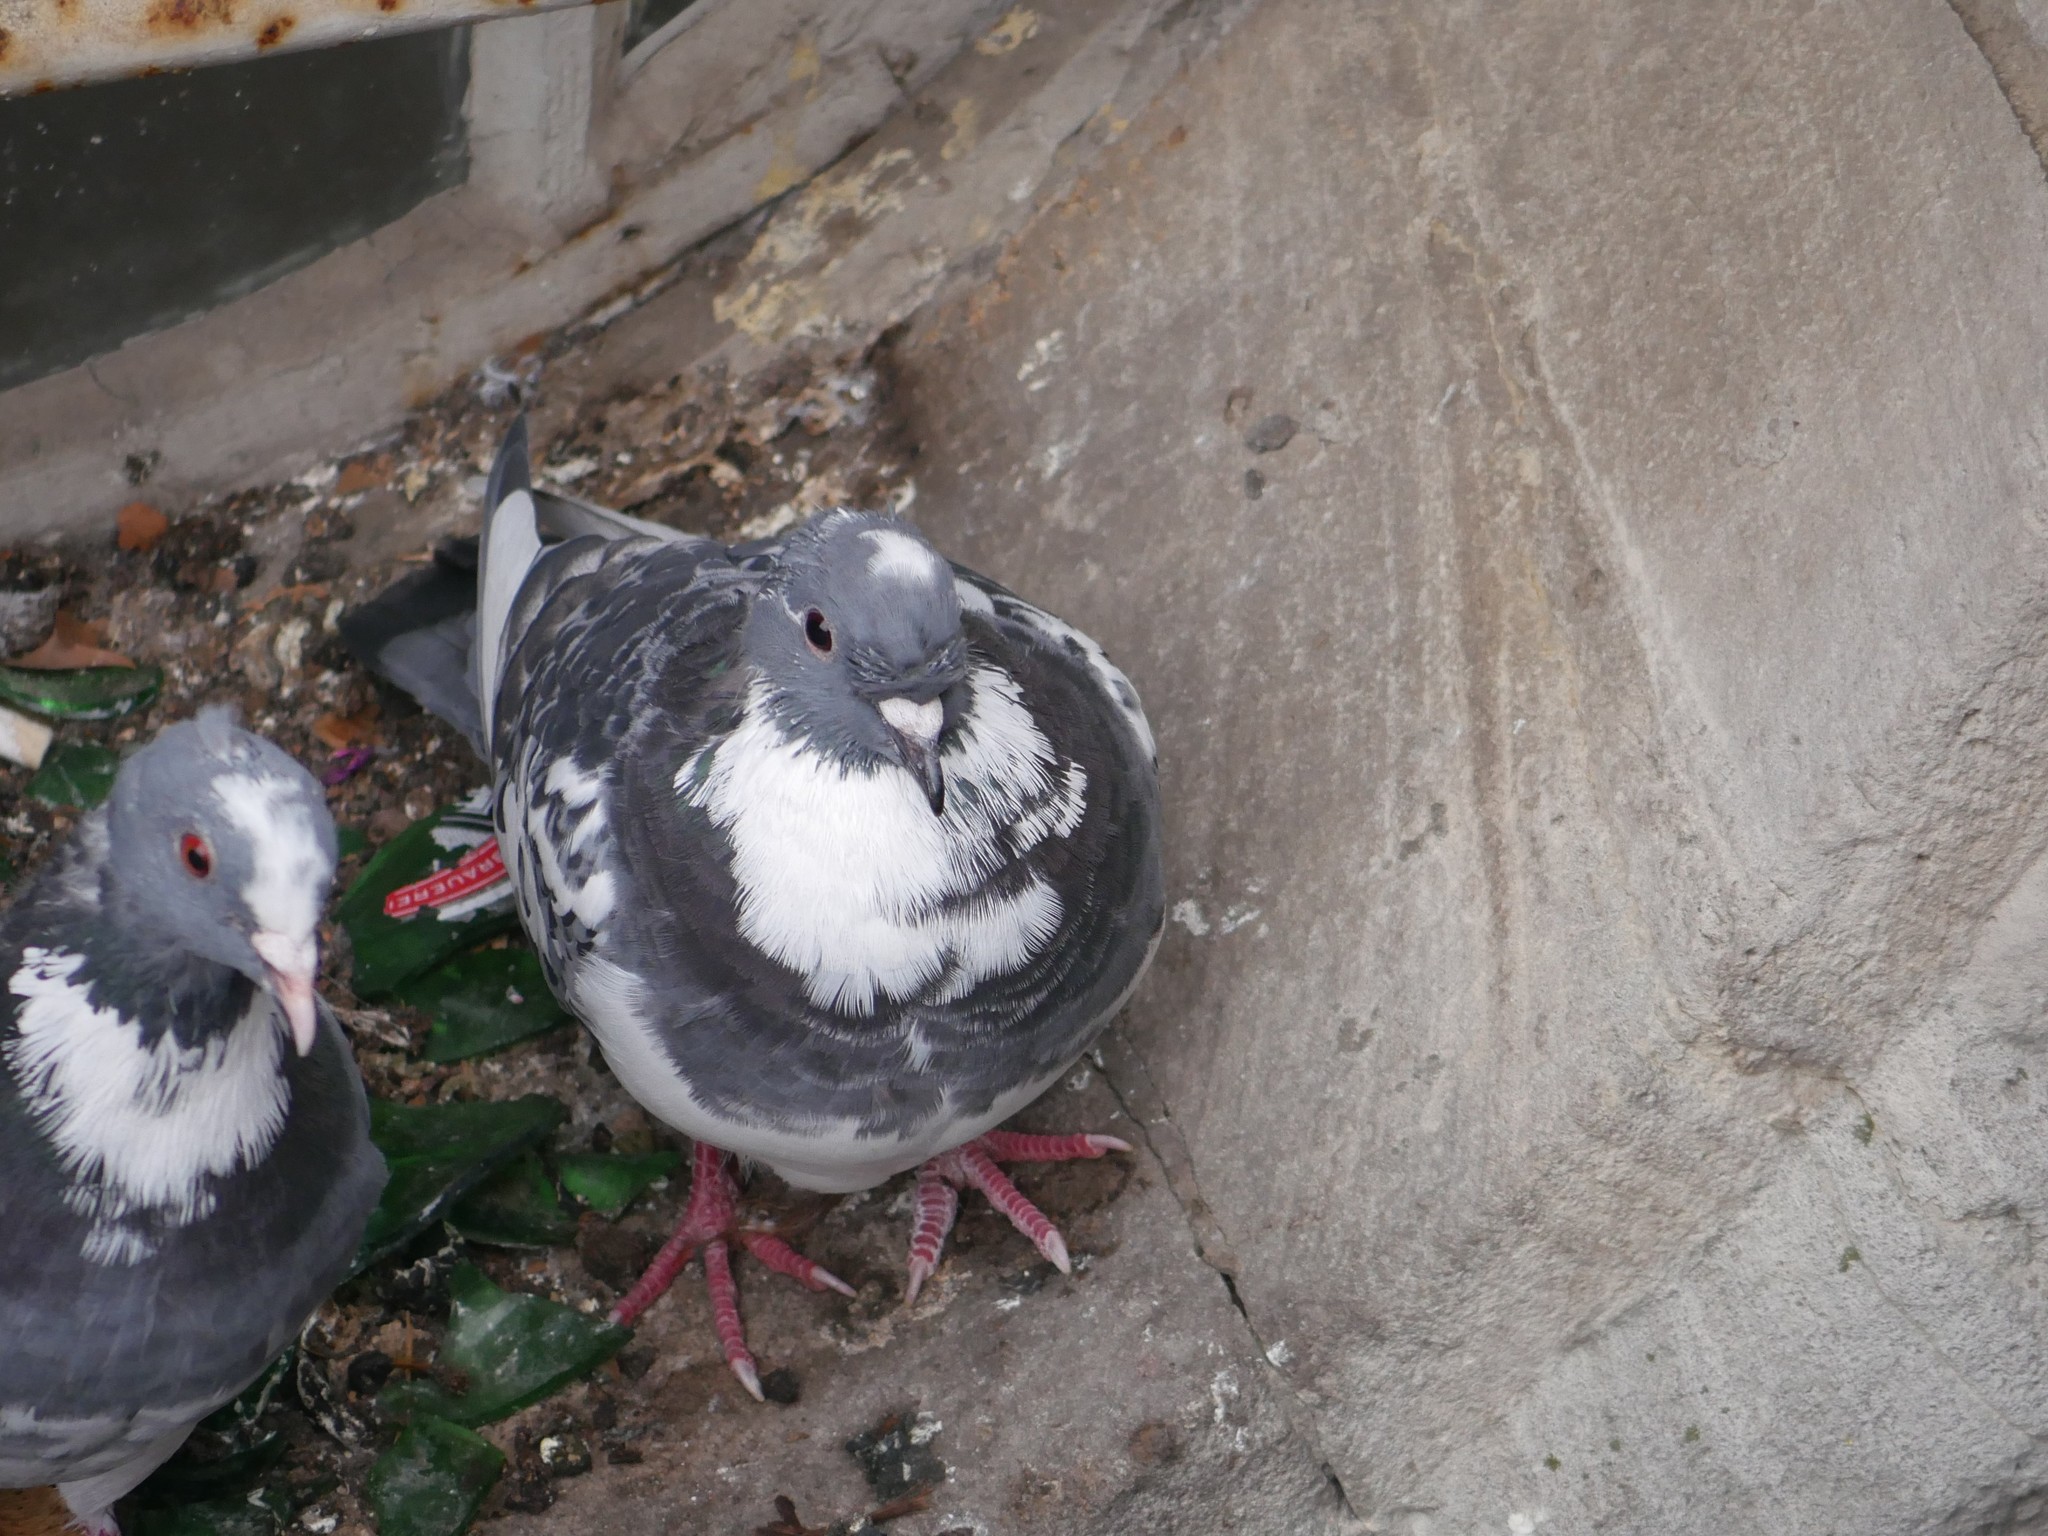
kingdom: Animalia
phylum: Chordata
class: Aves
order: Columbiformes
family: Columbidae
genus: Columba
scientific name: Columba livia
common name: Rock pigeon
